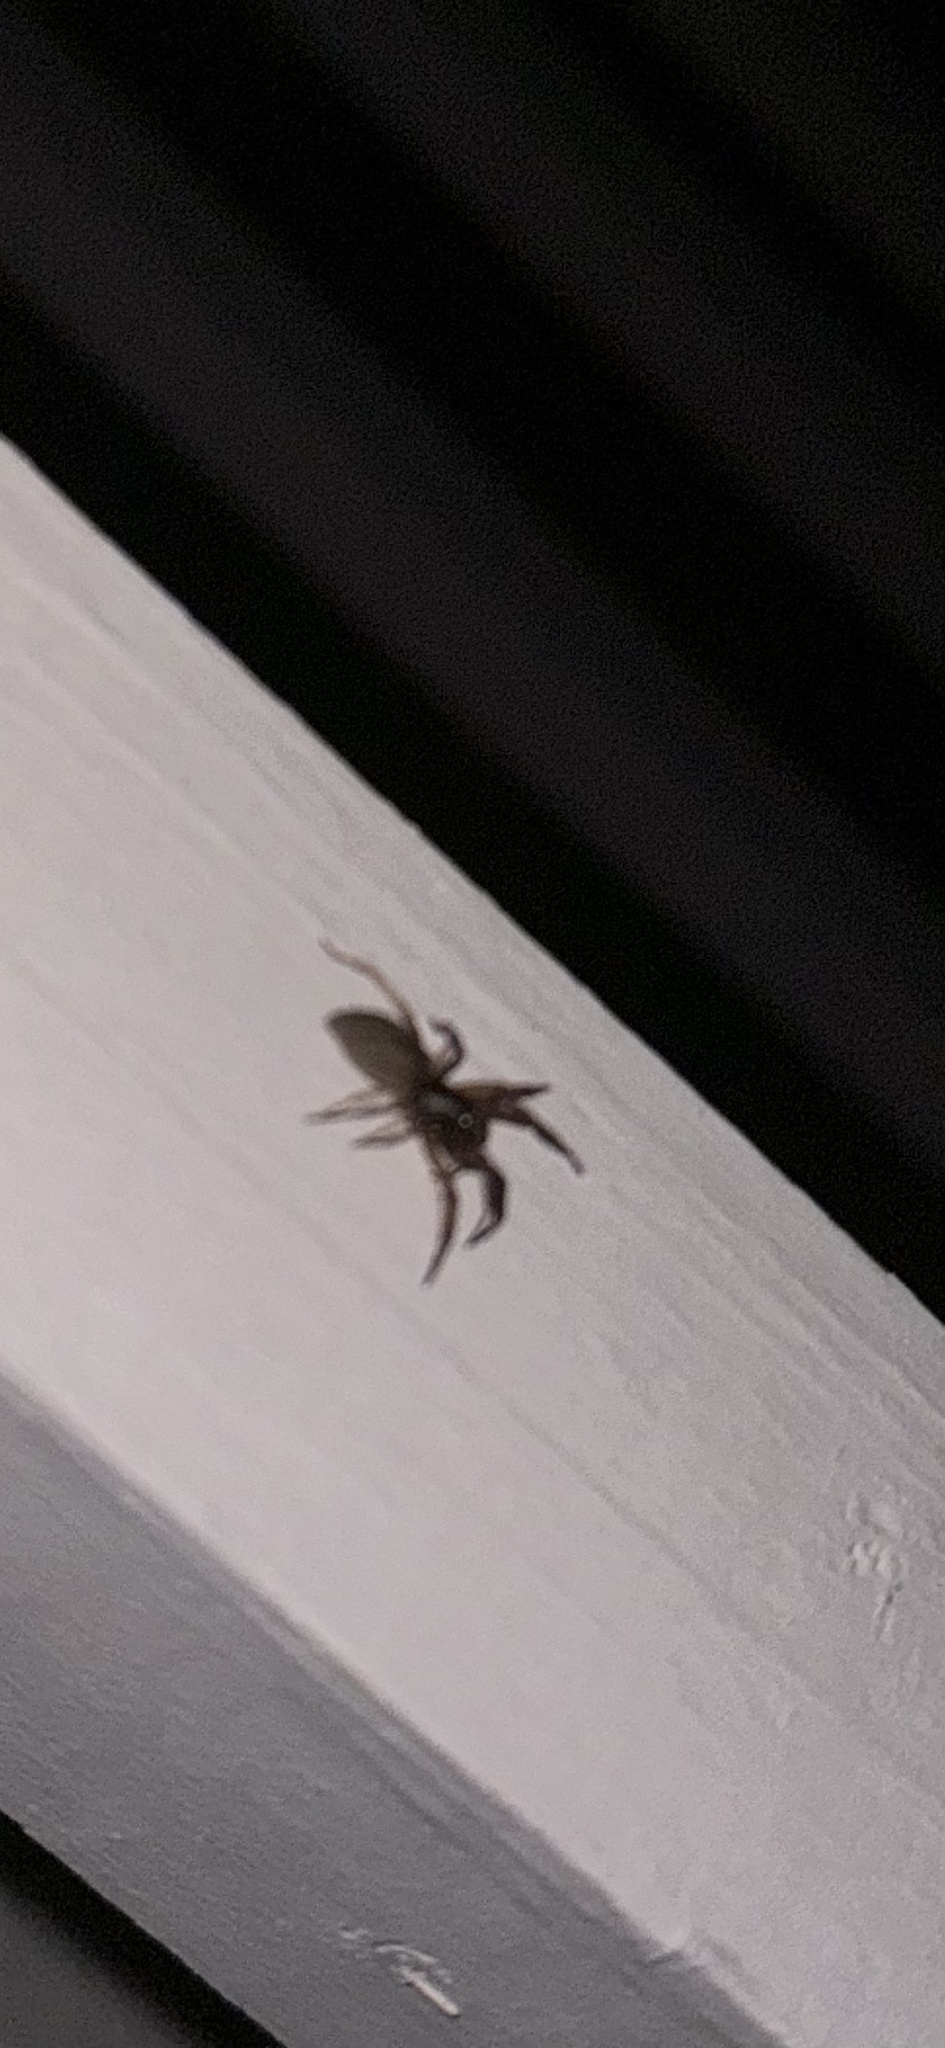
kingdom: Animalia
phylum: Arthropoda
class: Arachnida
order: Araneae
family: Trachelidae
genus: Trachelas
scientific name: Trachelas pacificus
